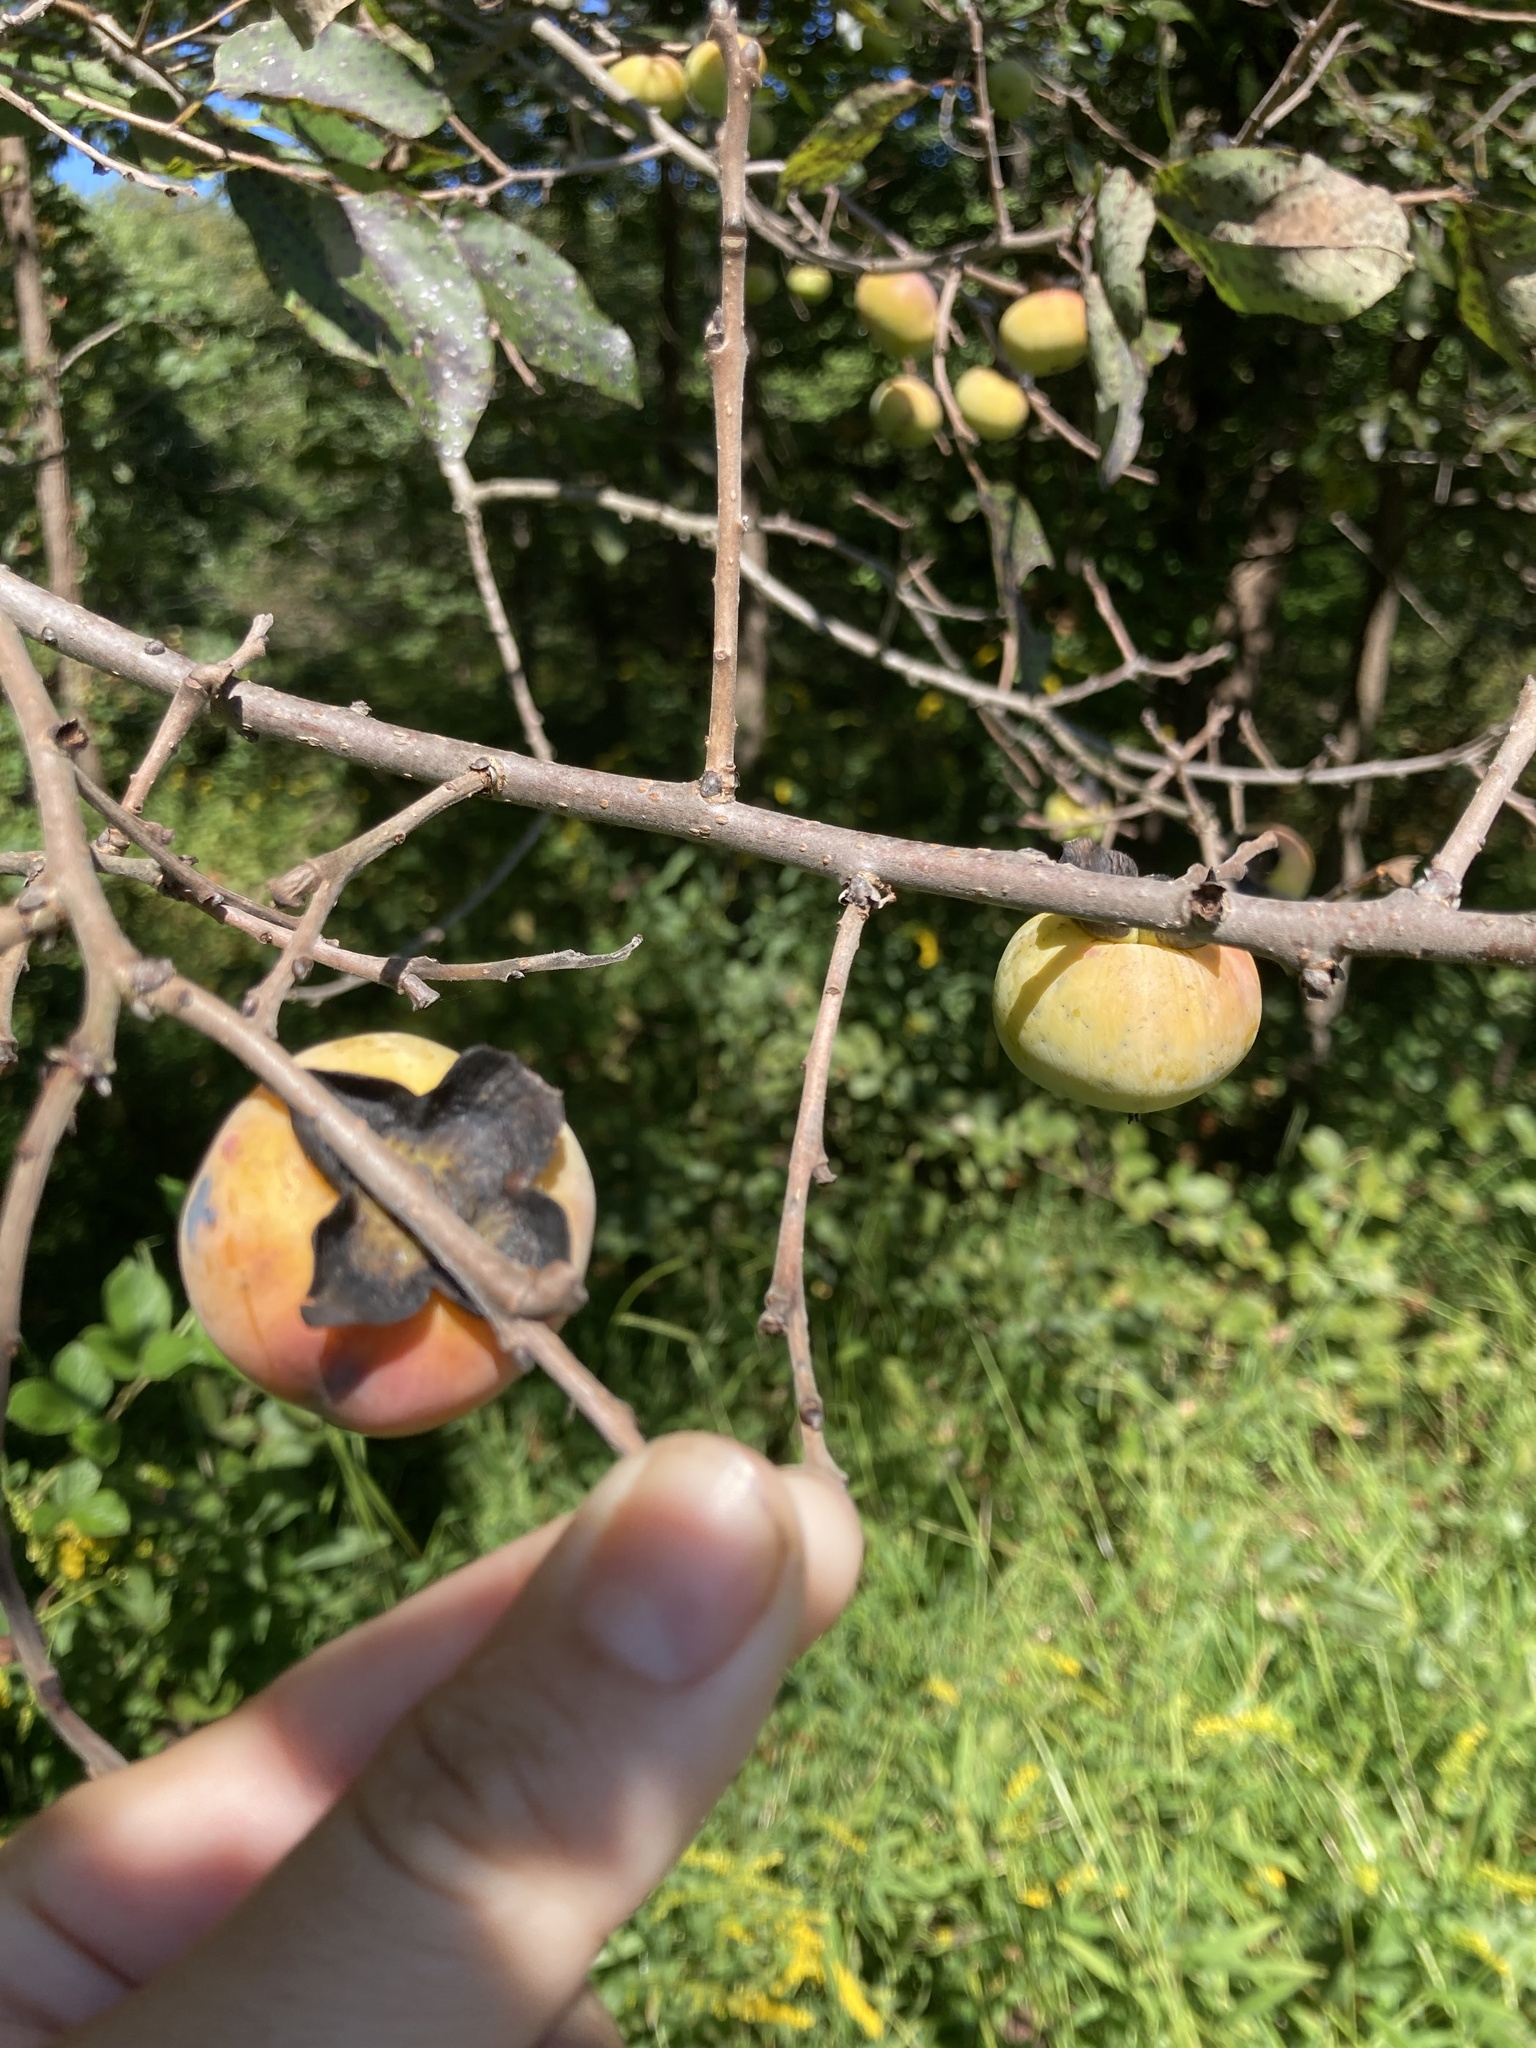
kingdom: Plantae
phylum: Tracheophyta
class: Magnoliopsida
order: Ericales
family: Ebenaceae
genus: Diospyros
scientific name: Diospyros virginiana
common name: Persimmon
